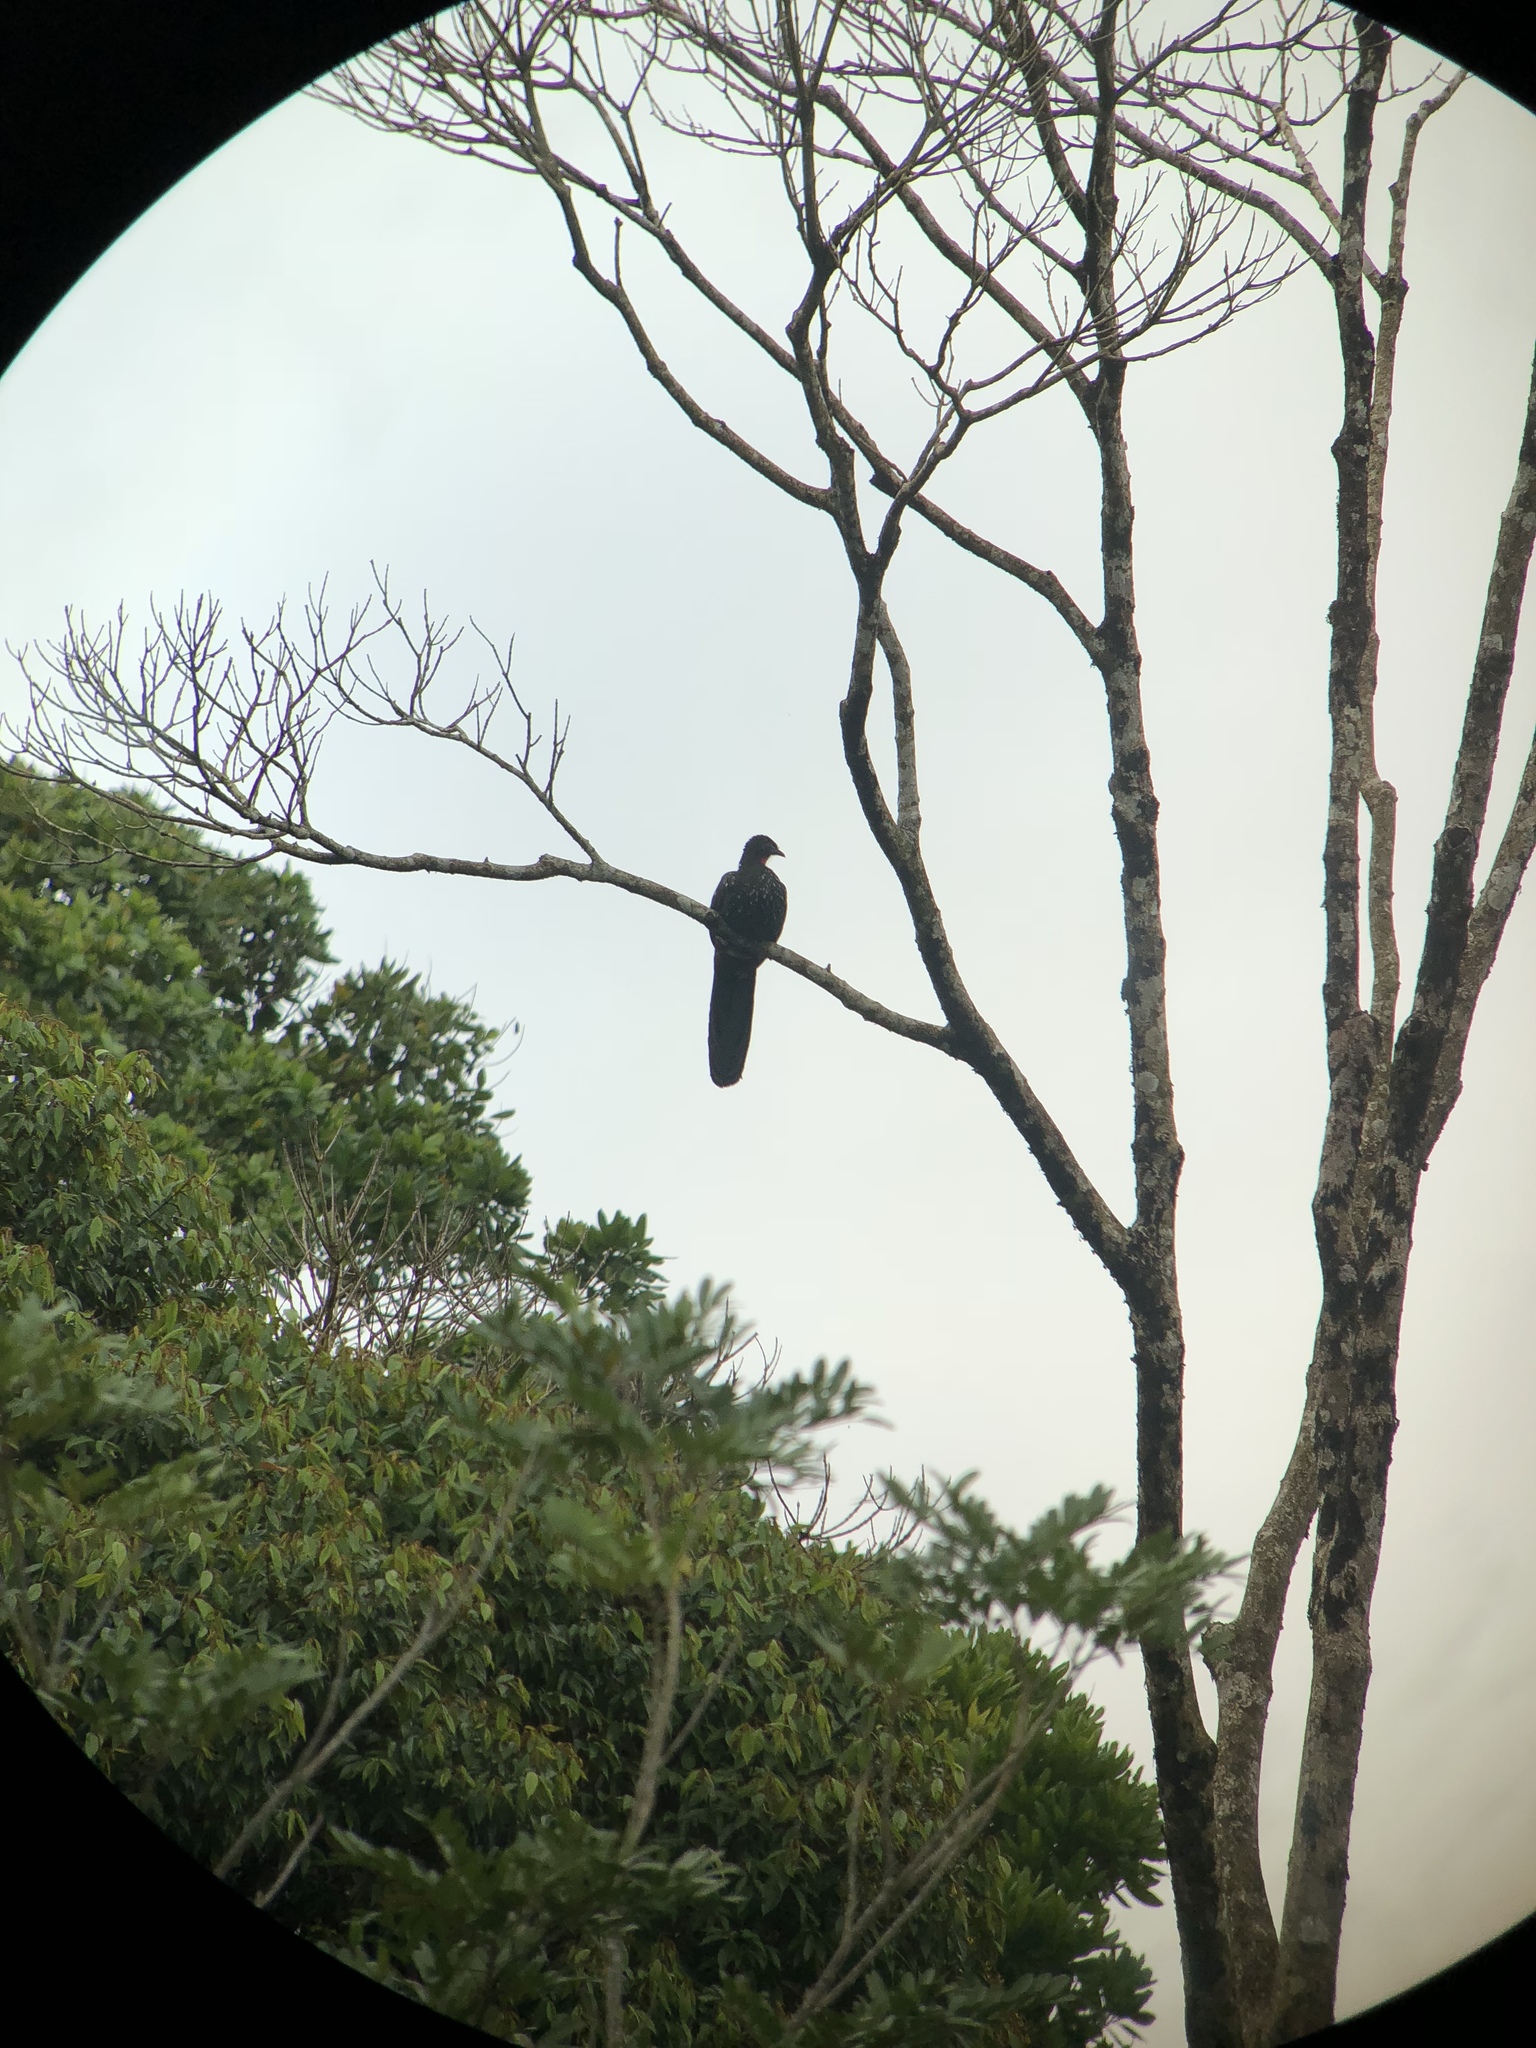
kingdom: Animalia
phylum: Chordata
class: Aves
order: Galliformes
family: Cracidae
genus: Penelope
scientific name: Penelope purpurascens
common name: Crested guan
